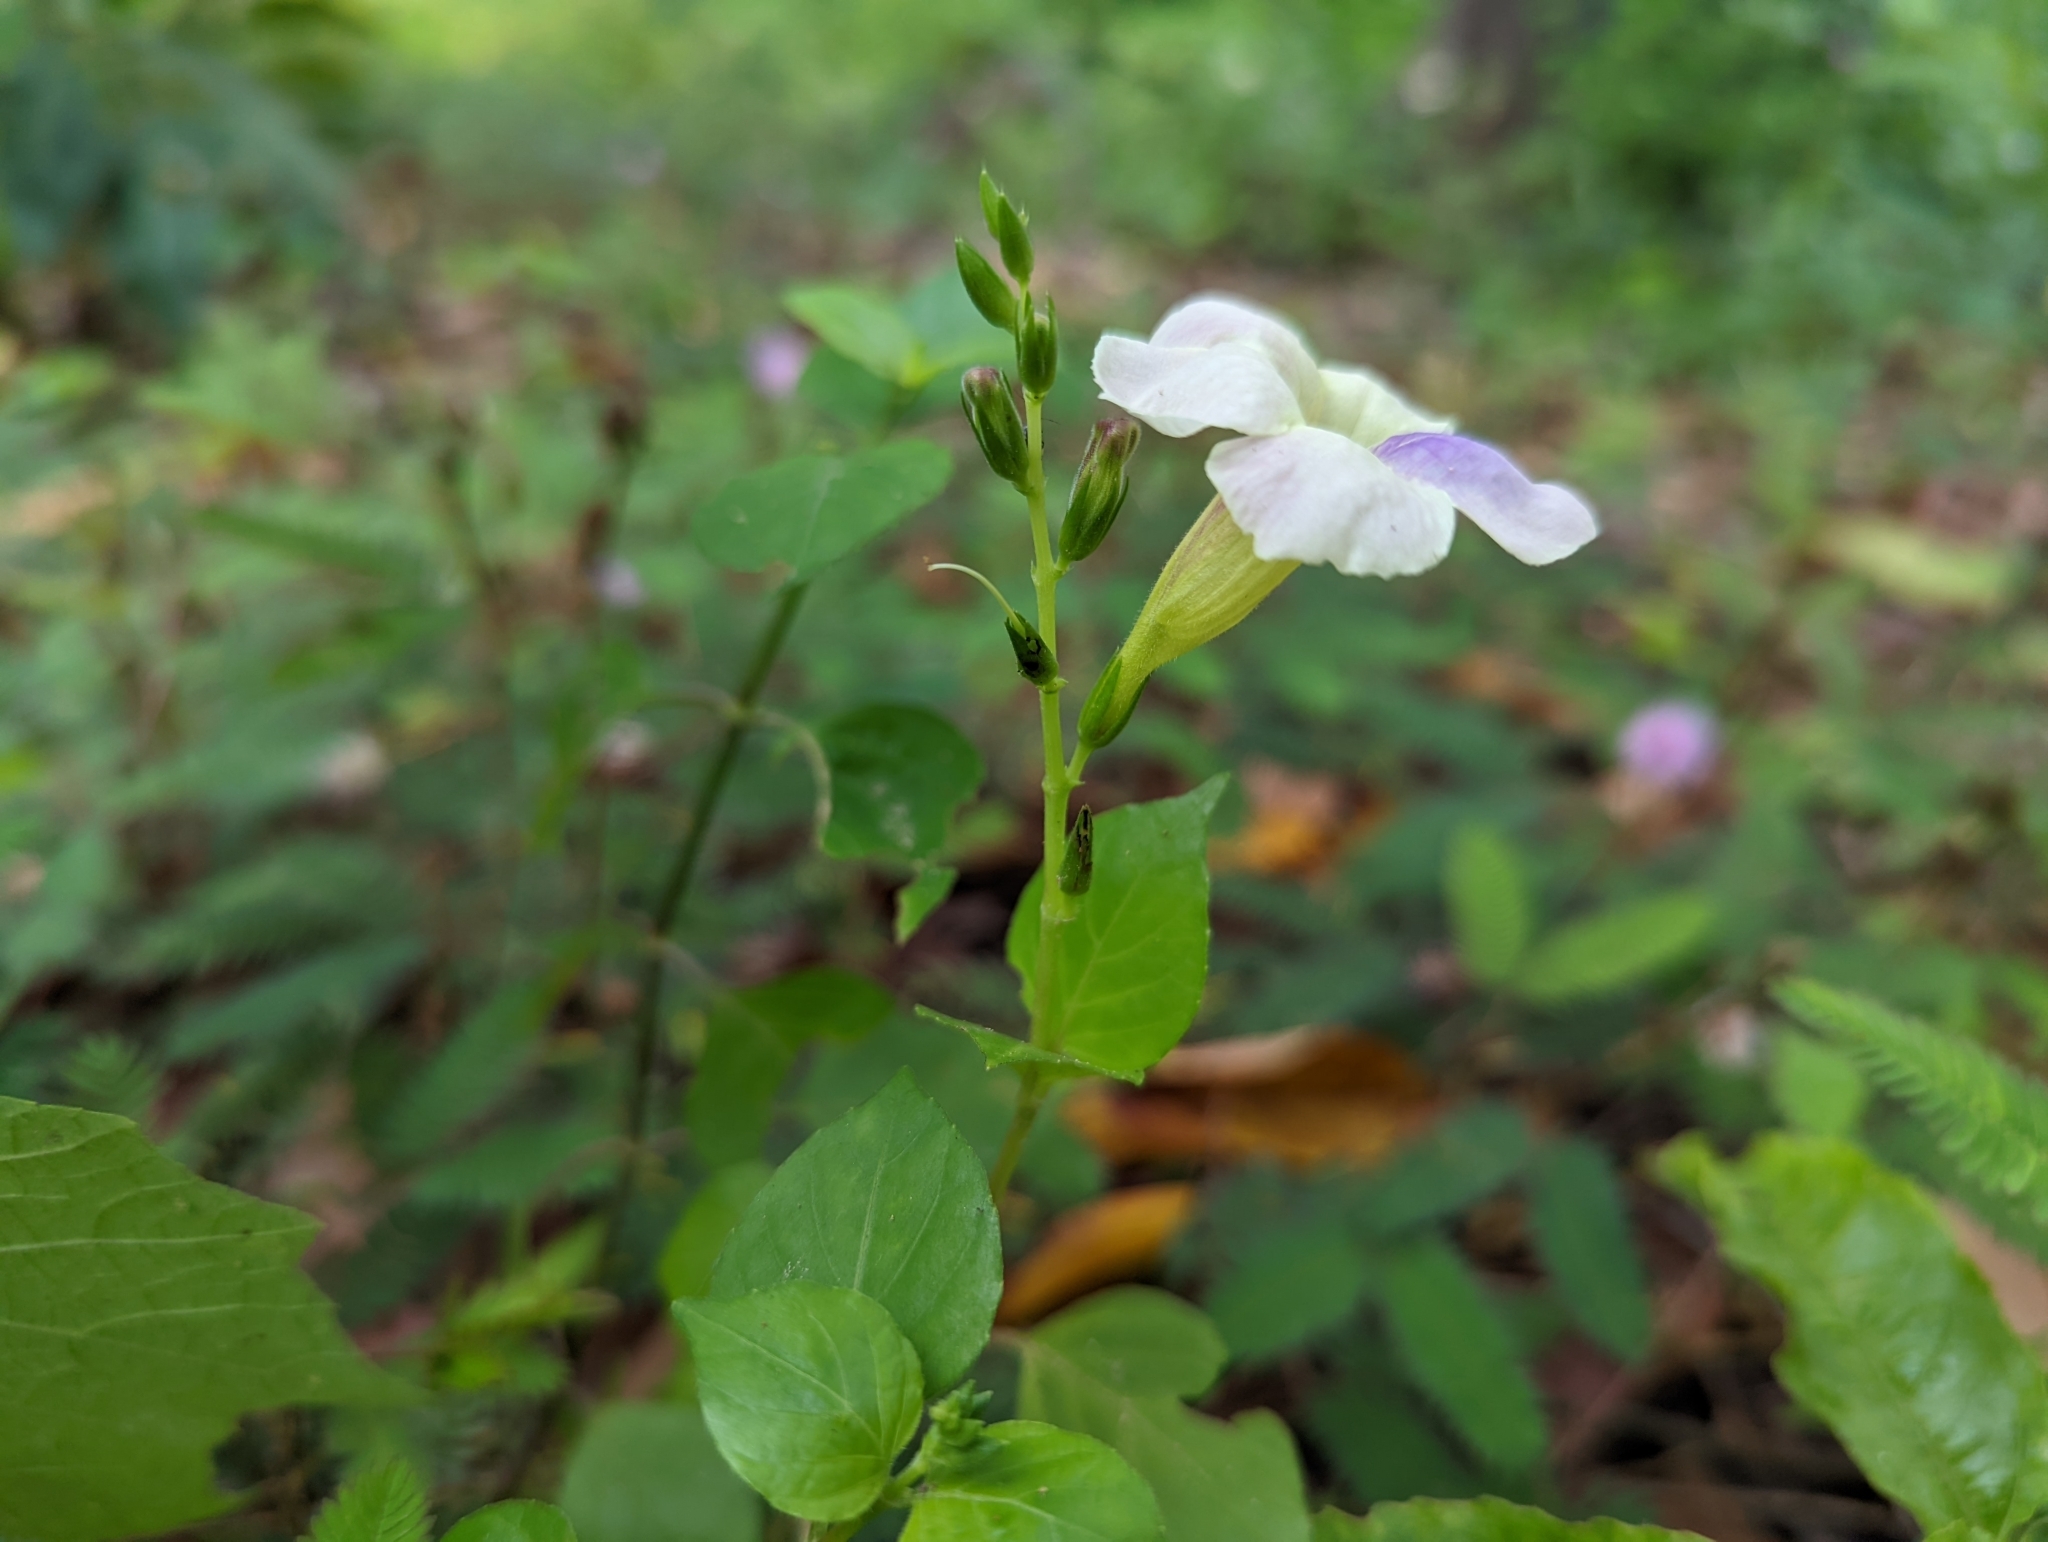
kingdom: Plantae
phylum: Tracheophyta
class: Magnoliopsida
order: Lamiales
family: Acanthaceae
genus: Asystasia
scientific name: Asystasia gangetica
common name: Chinese violet
